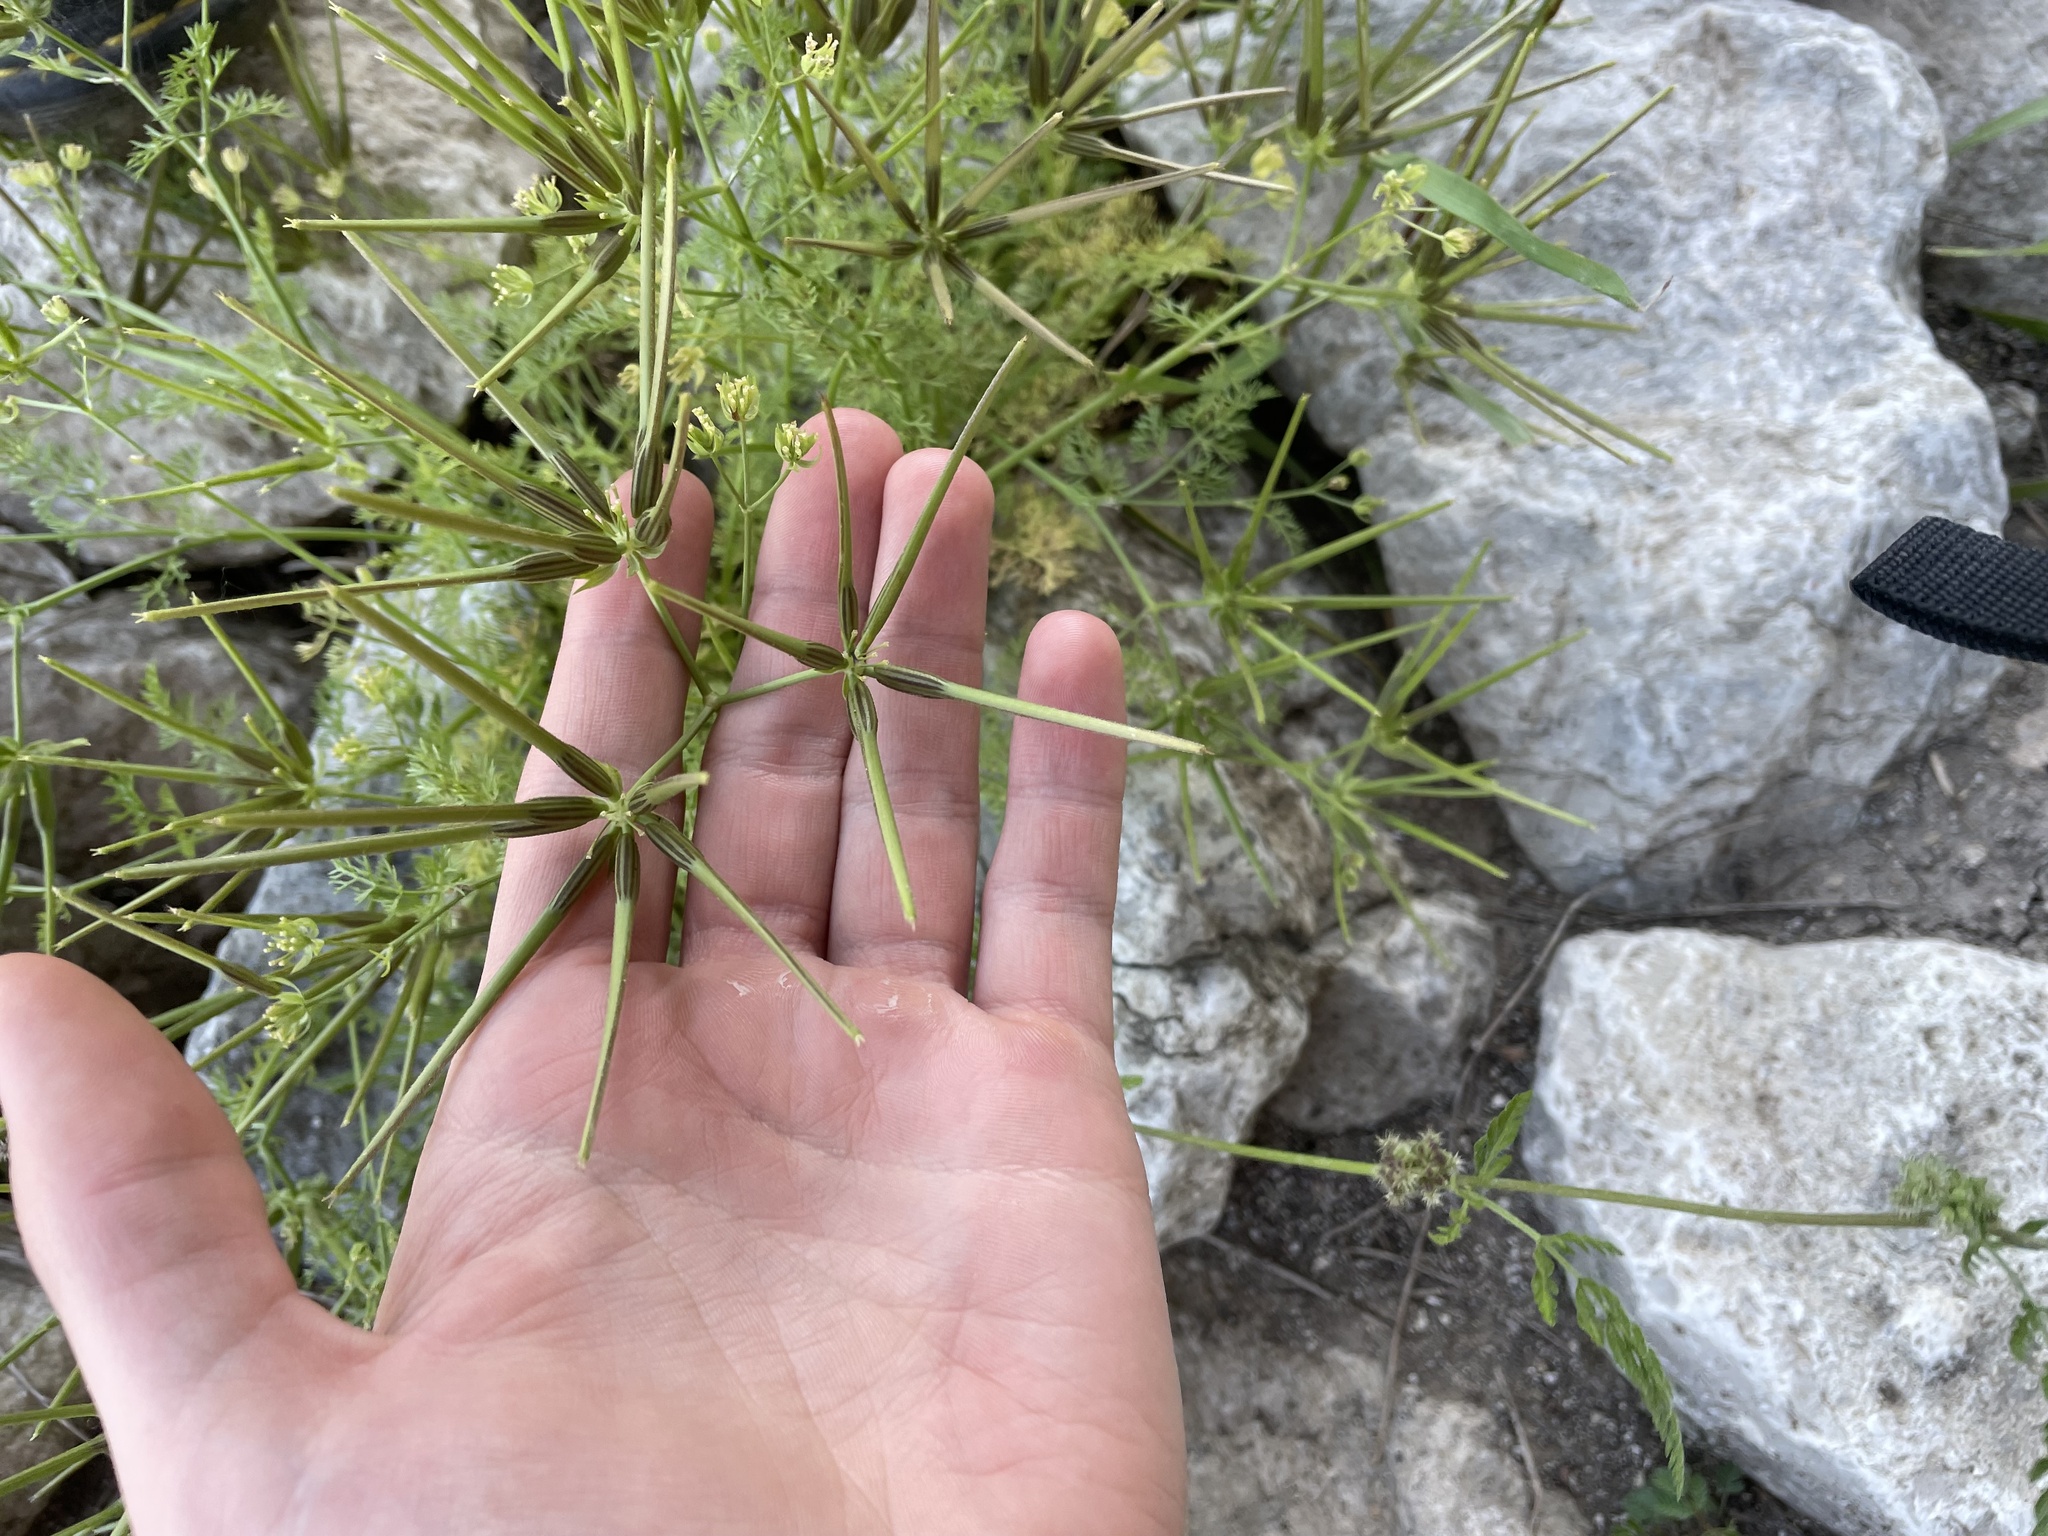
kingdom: Plantae
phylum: Tracheophyta
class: Magnoliopsida
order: Apiales
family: Apiaceae
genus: Scandix
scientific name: Scandix pecten-veneris
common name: Shepherd's-needle
